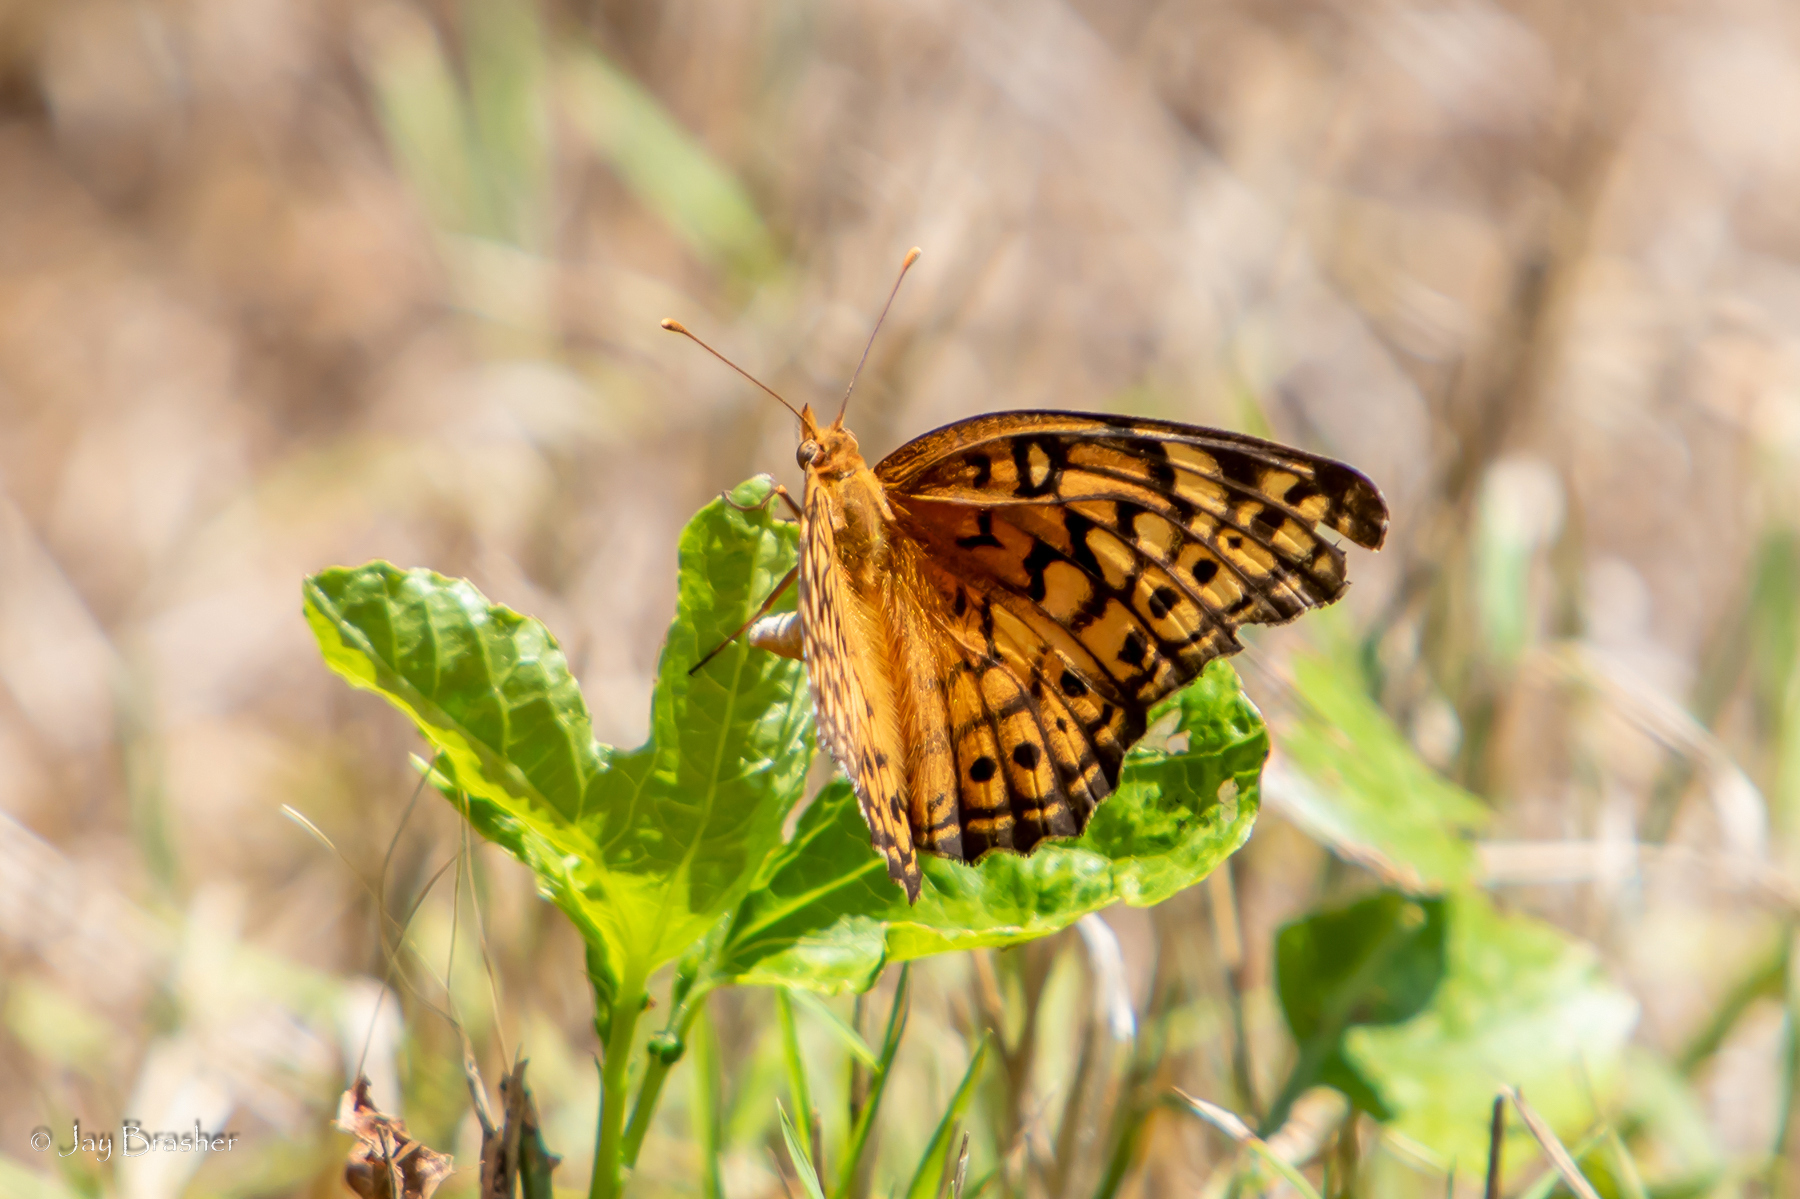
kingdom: Animalia
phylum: Arthropoda
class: Insecta
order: Lepidoptera
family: Nymphalidae
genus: Euptoieta
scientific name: Euptoieta claudia
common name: Variegated fritillary
